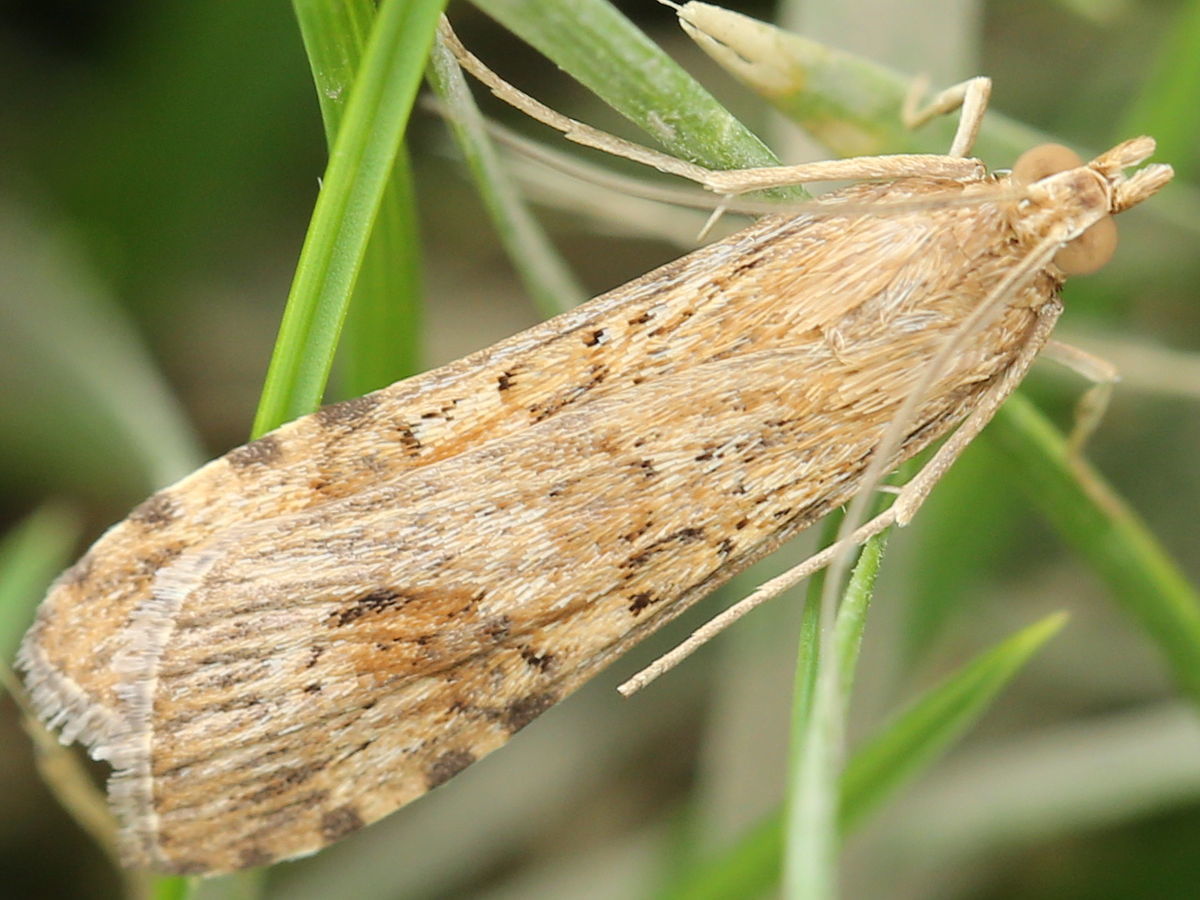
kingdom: Animalia
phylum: Arthropoda
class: Insecta
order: Lepidoptera
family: Crambidae
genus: Nomophila
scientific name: Nomophila nearctica
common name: American rush veneer
